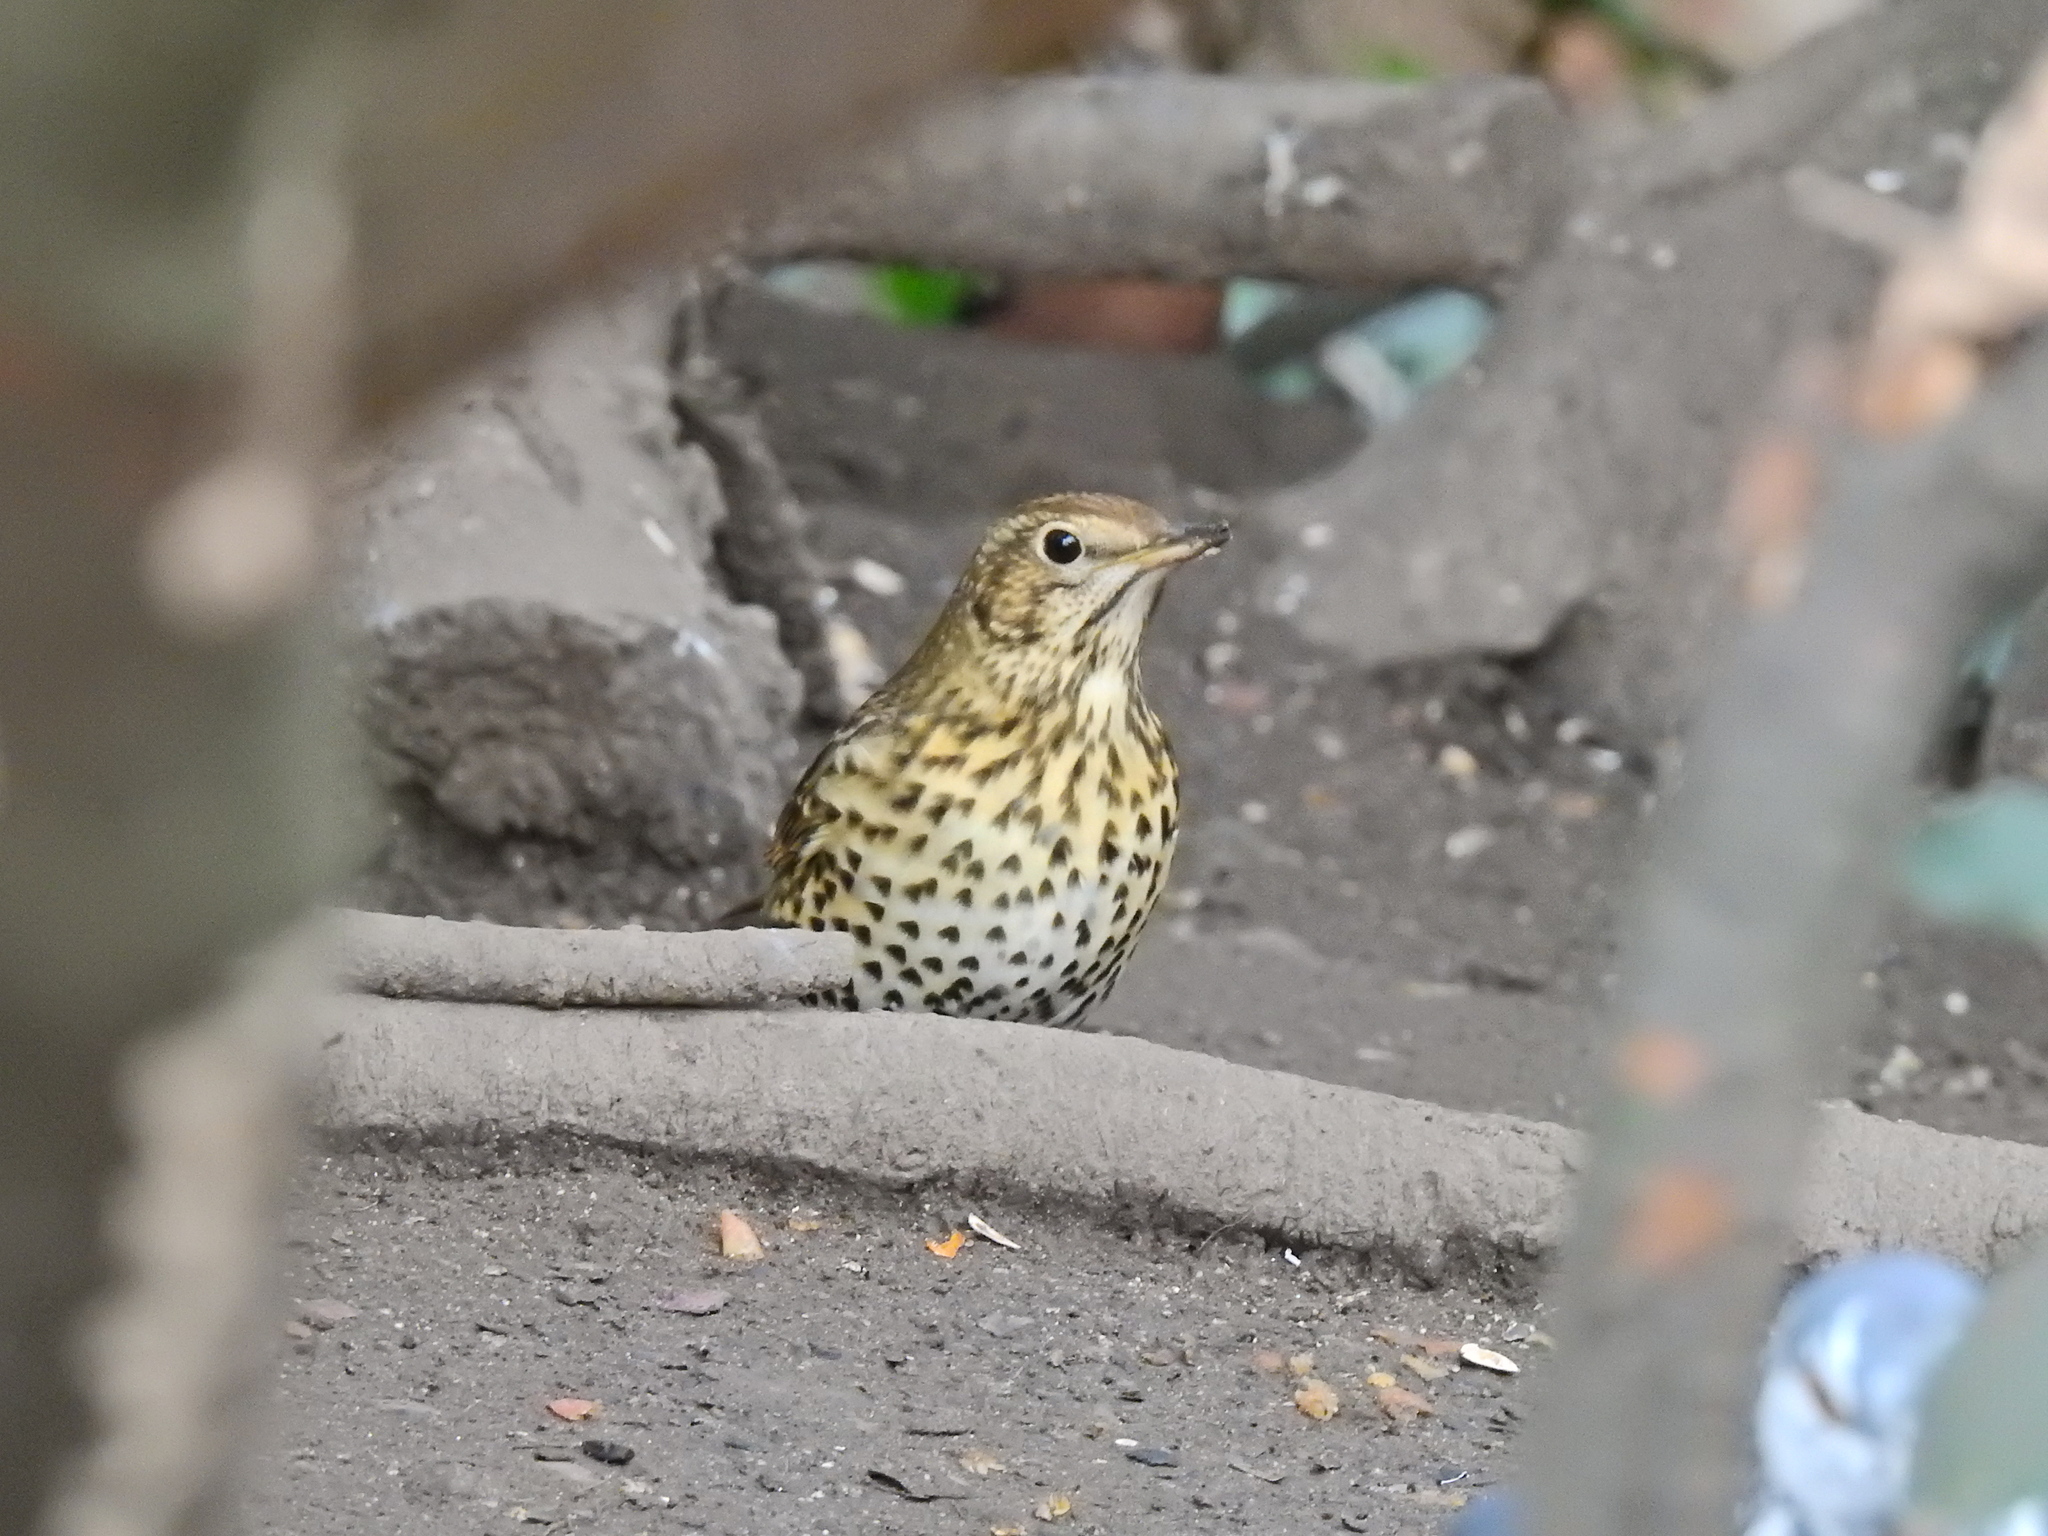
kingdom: Animalia
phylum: Chordata
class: Aves
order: Passeriformes
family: Turdidae
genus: Turdus
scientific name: Turdus philomelos
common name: Song thrush
